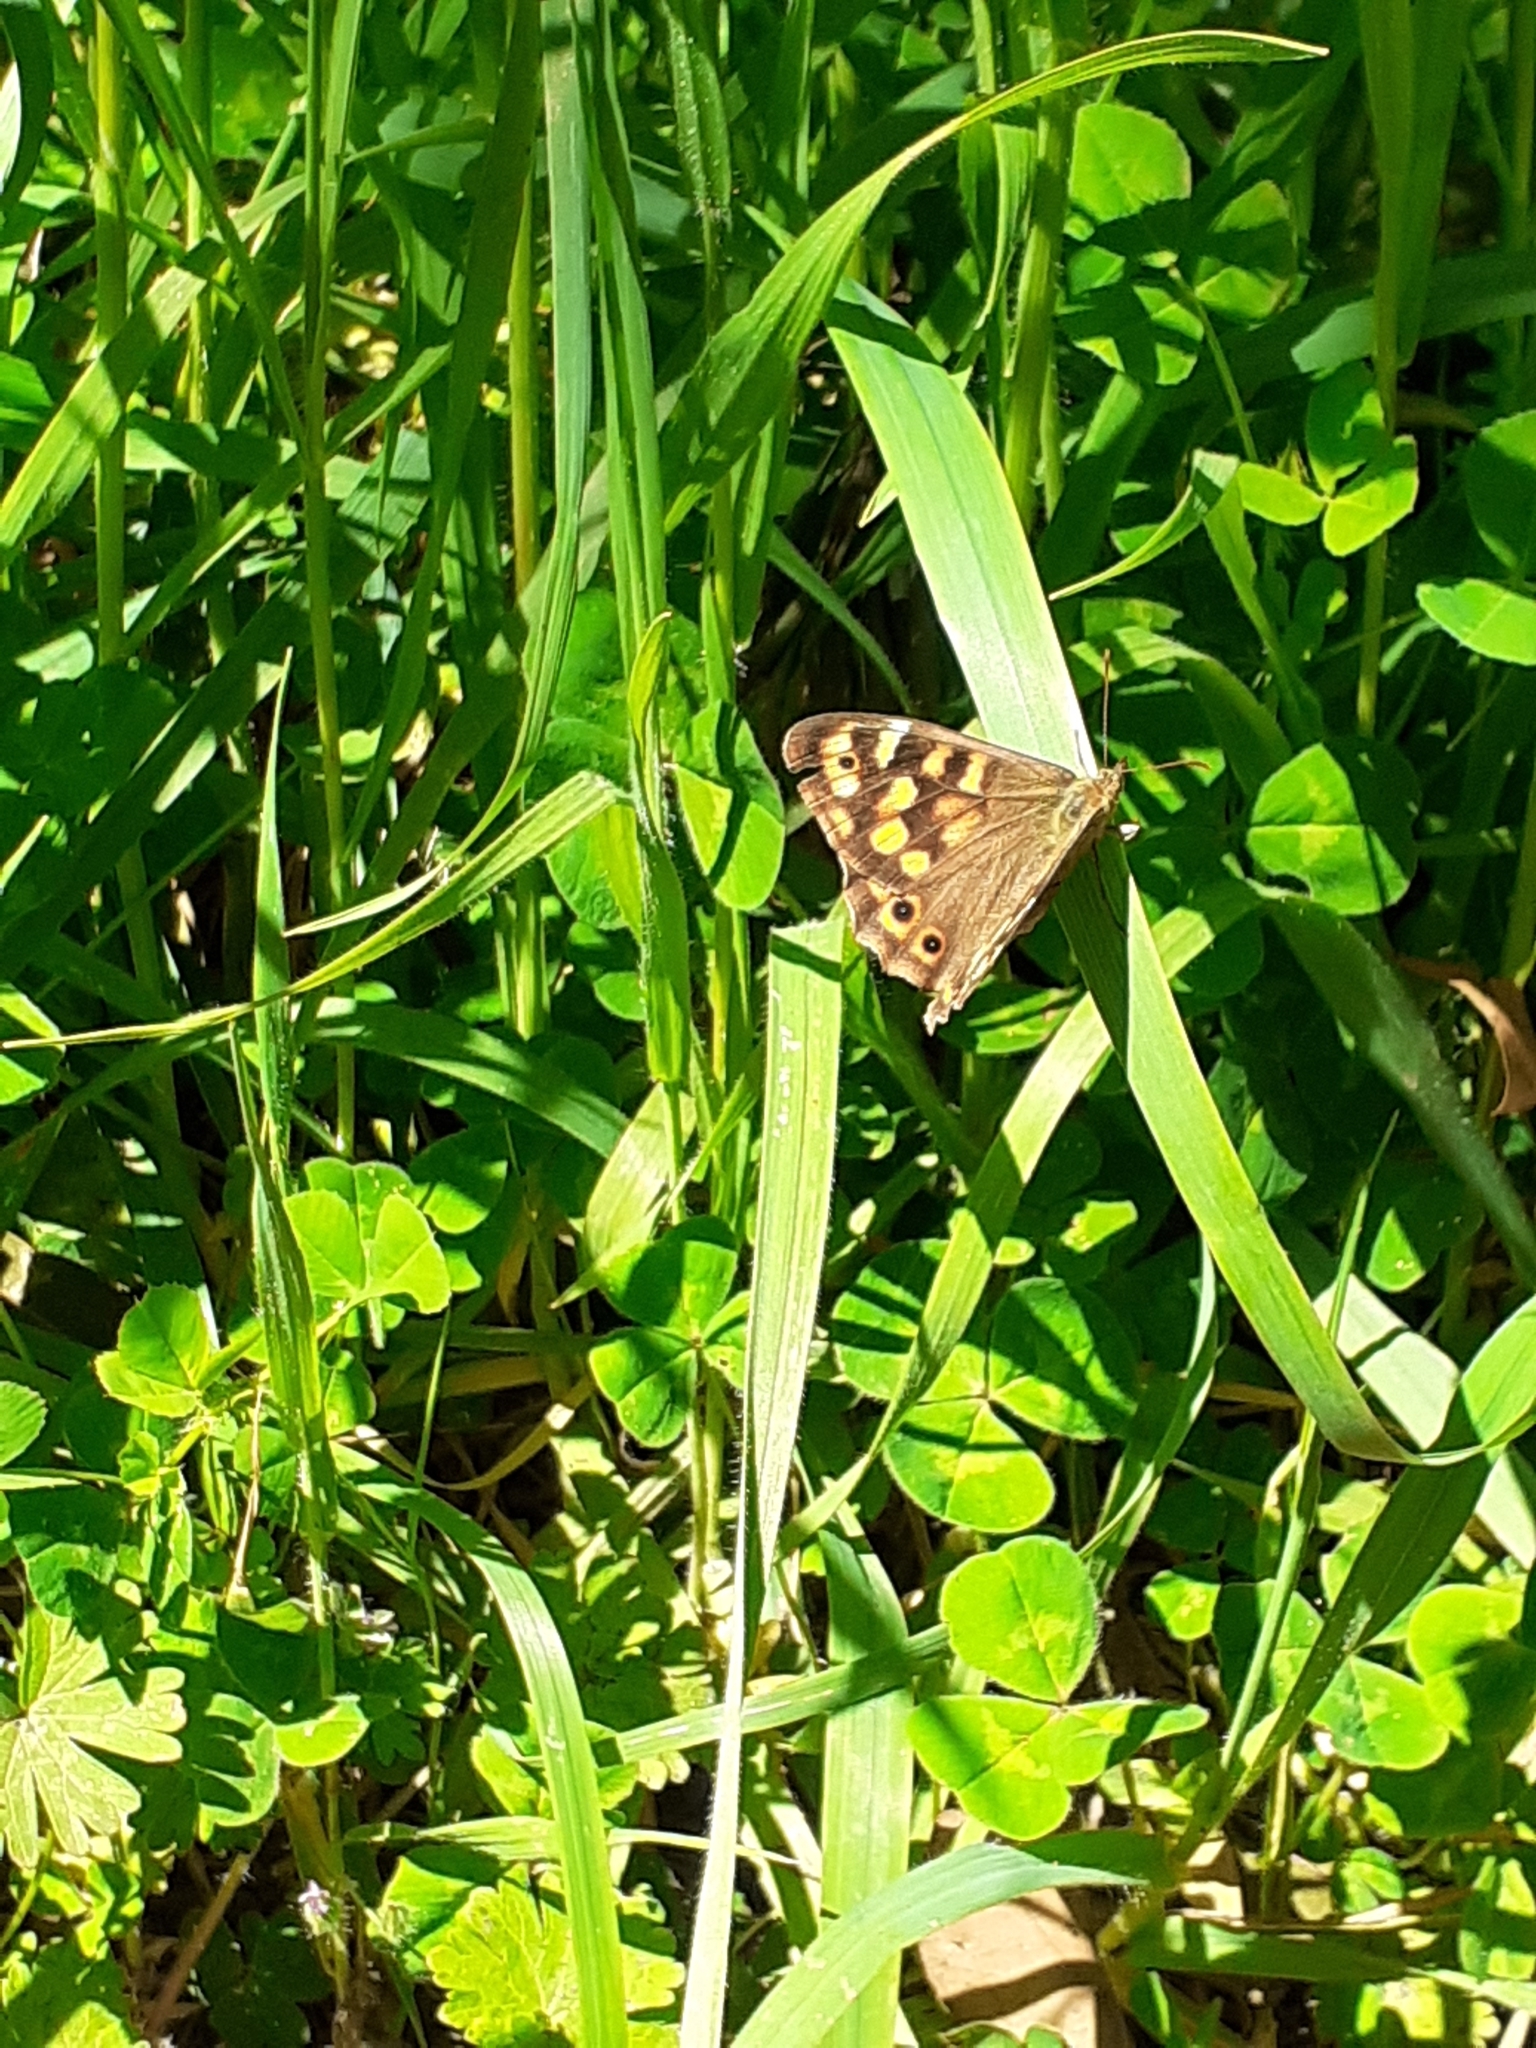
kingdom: Animalia
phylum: Arthropoda
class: Insecta
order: Lepidoptera
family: Nymphalidae
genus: Pararge
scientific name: Pararge aegeria
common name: Speckled wood
